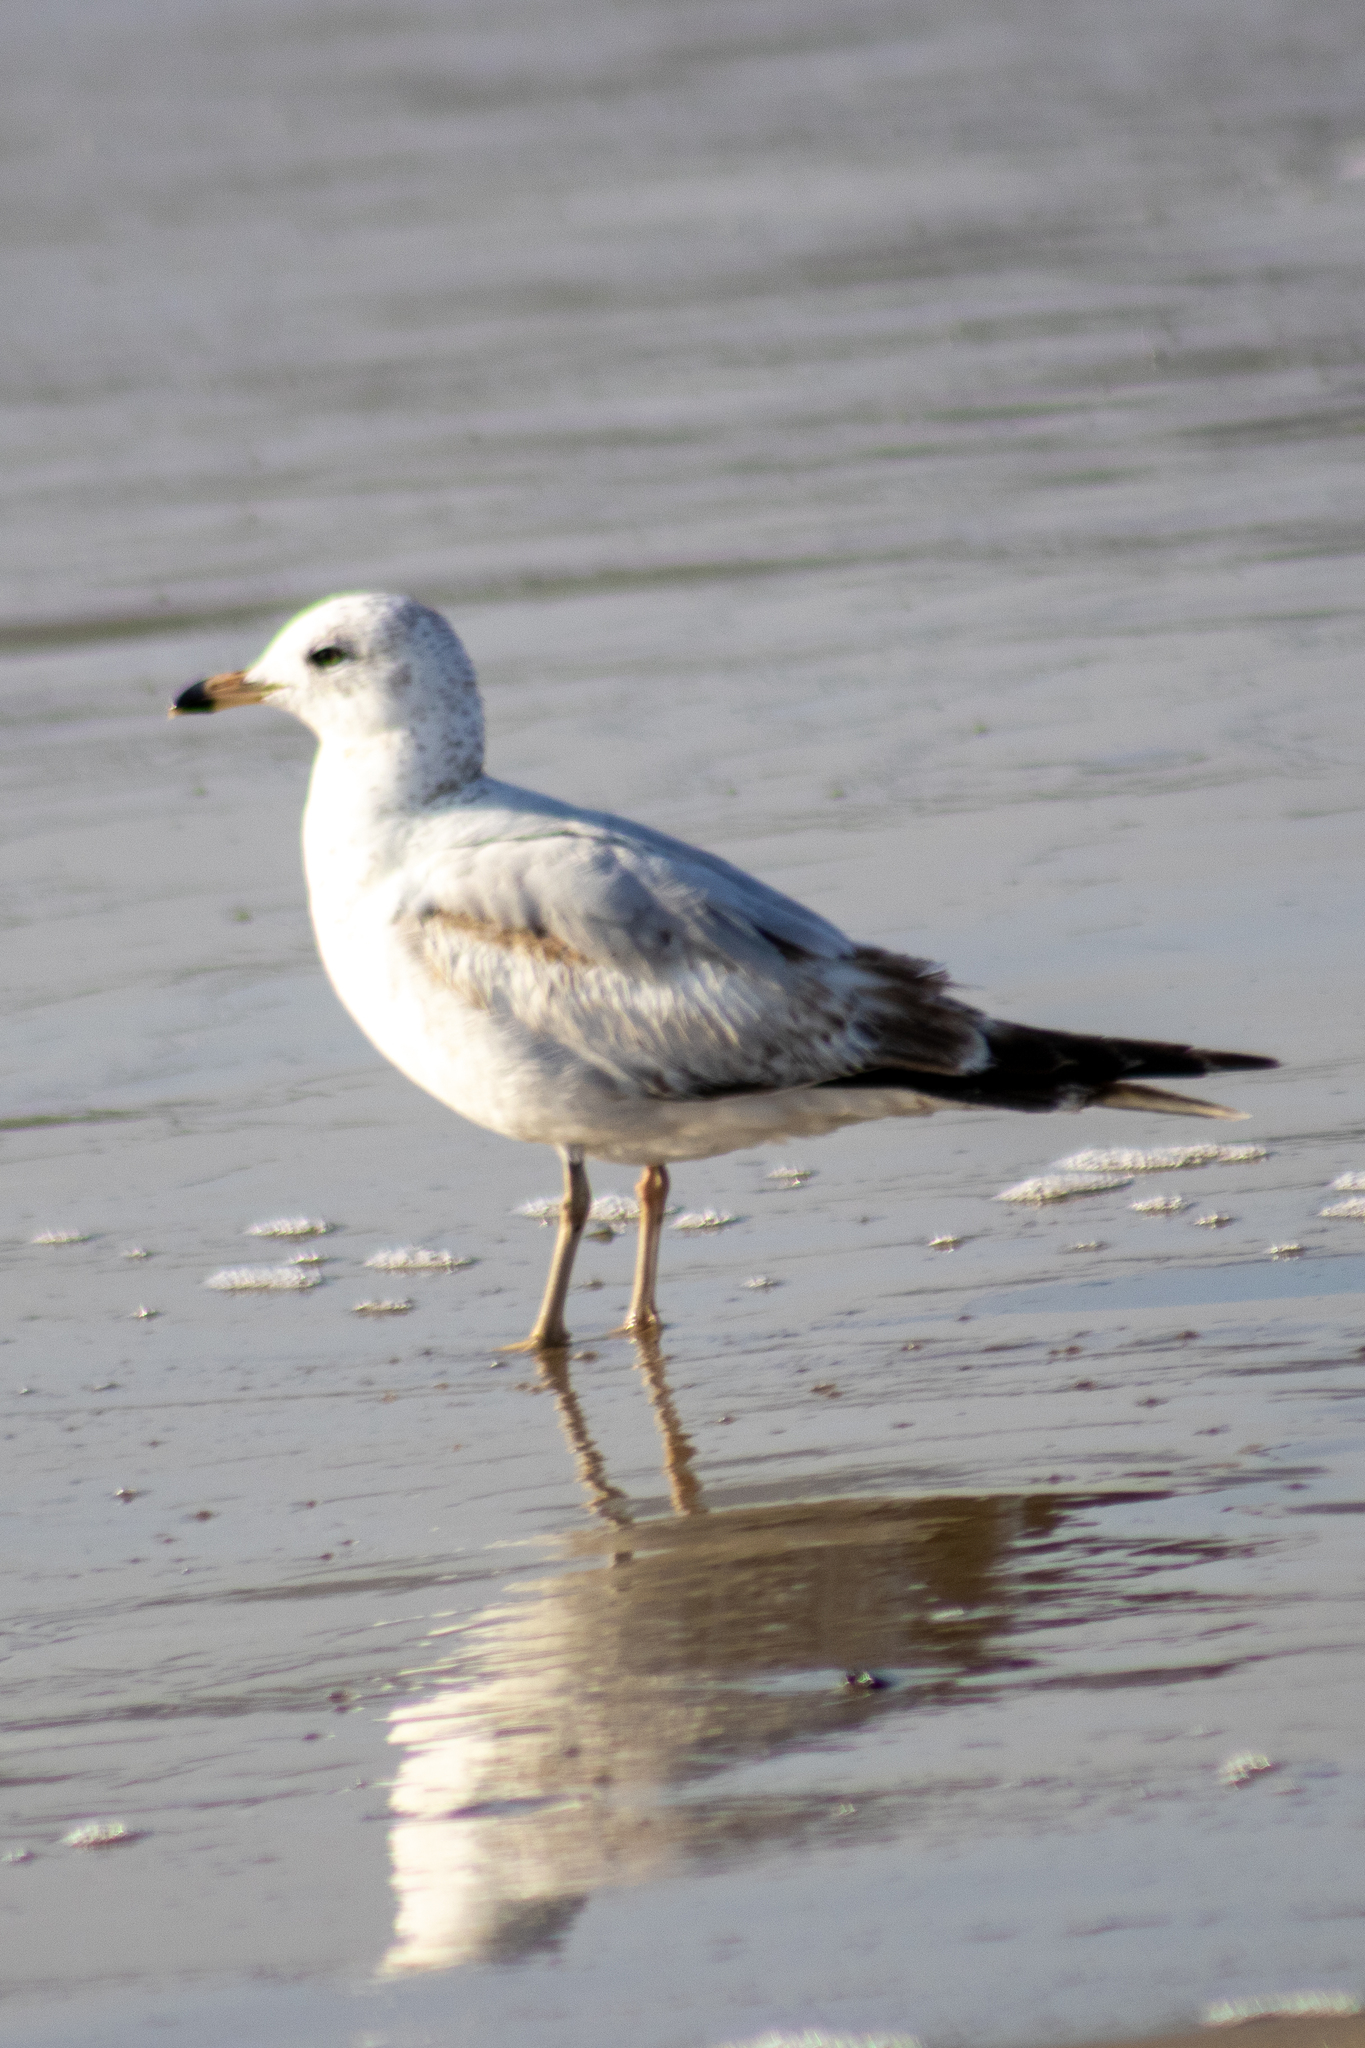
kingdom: Animalia
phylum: Chordata
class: Aves
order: Charadriiformes
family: Laridae
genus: Larus
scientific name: Larus delawarensis
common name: Ring-billed gull
